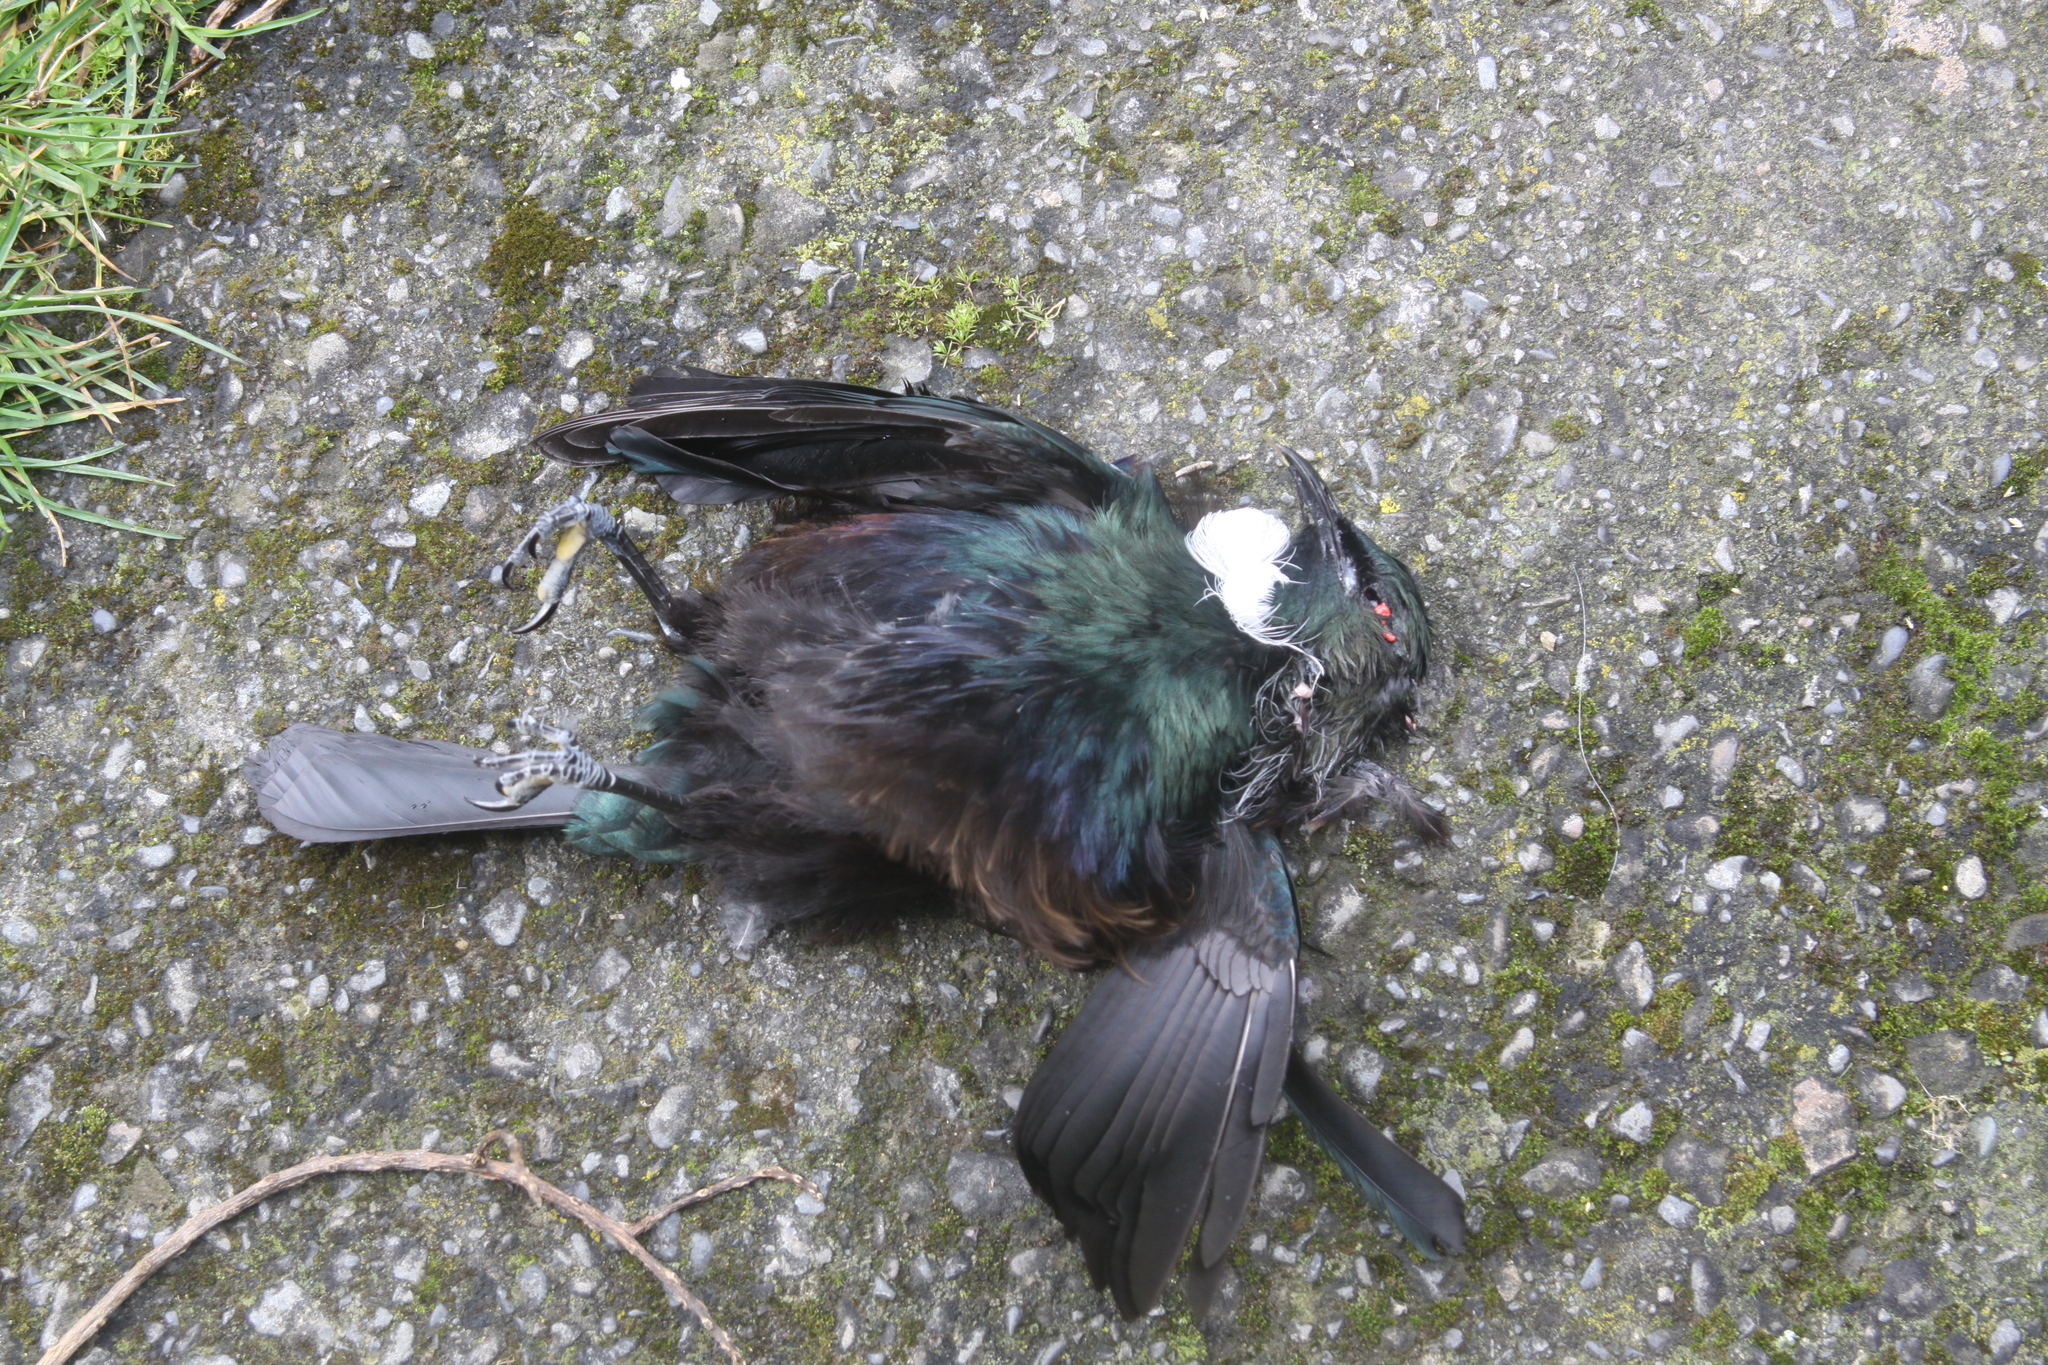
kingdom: Animalia
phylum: Chordata
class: Aves
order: Passeriformes
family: Meliphagidae
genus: Prosthemadera
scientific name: Prosthemadera novaeseelandiae
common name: Tui
